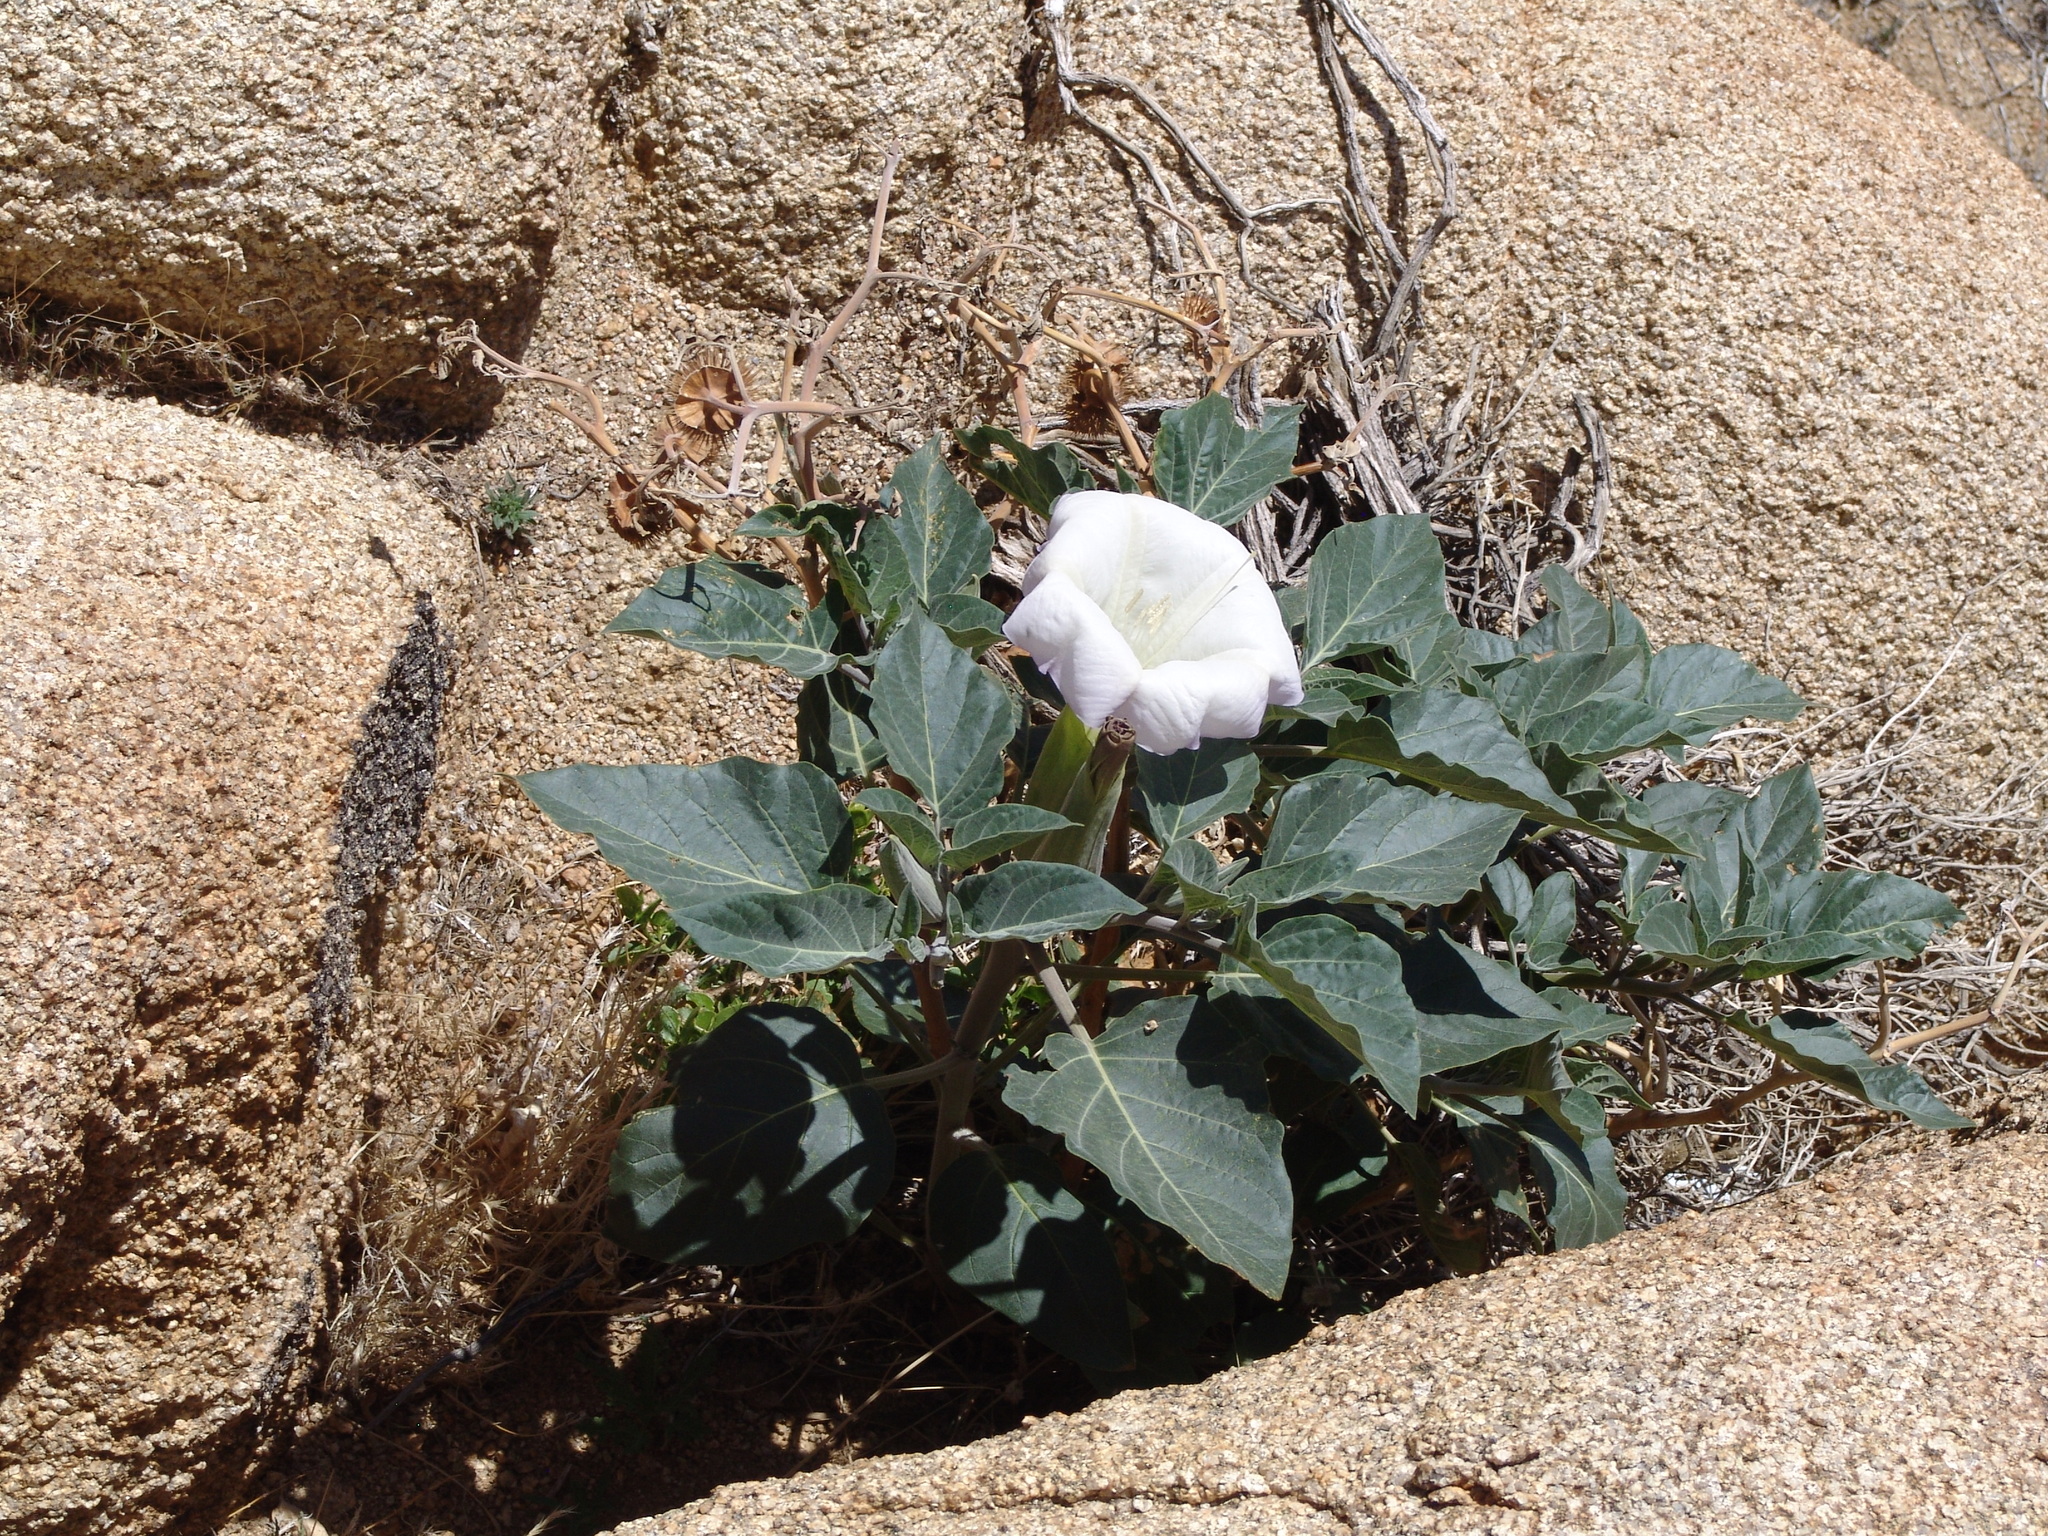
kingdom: Plantae
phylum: Tracheophyta
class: Magnoliopsida
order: Solanales
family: Solanaceae
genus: Datura
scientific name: Datura wrightii
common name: Sacred thorn-apple
